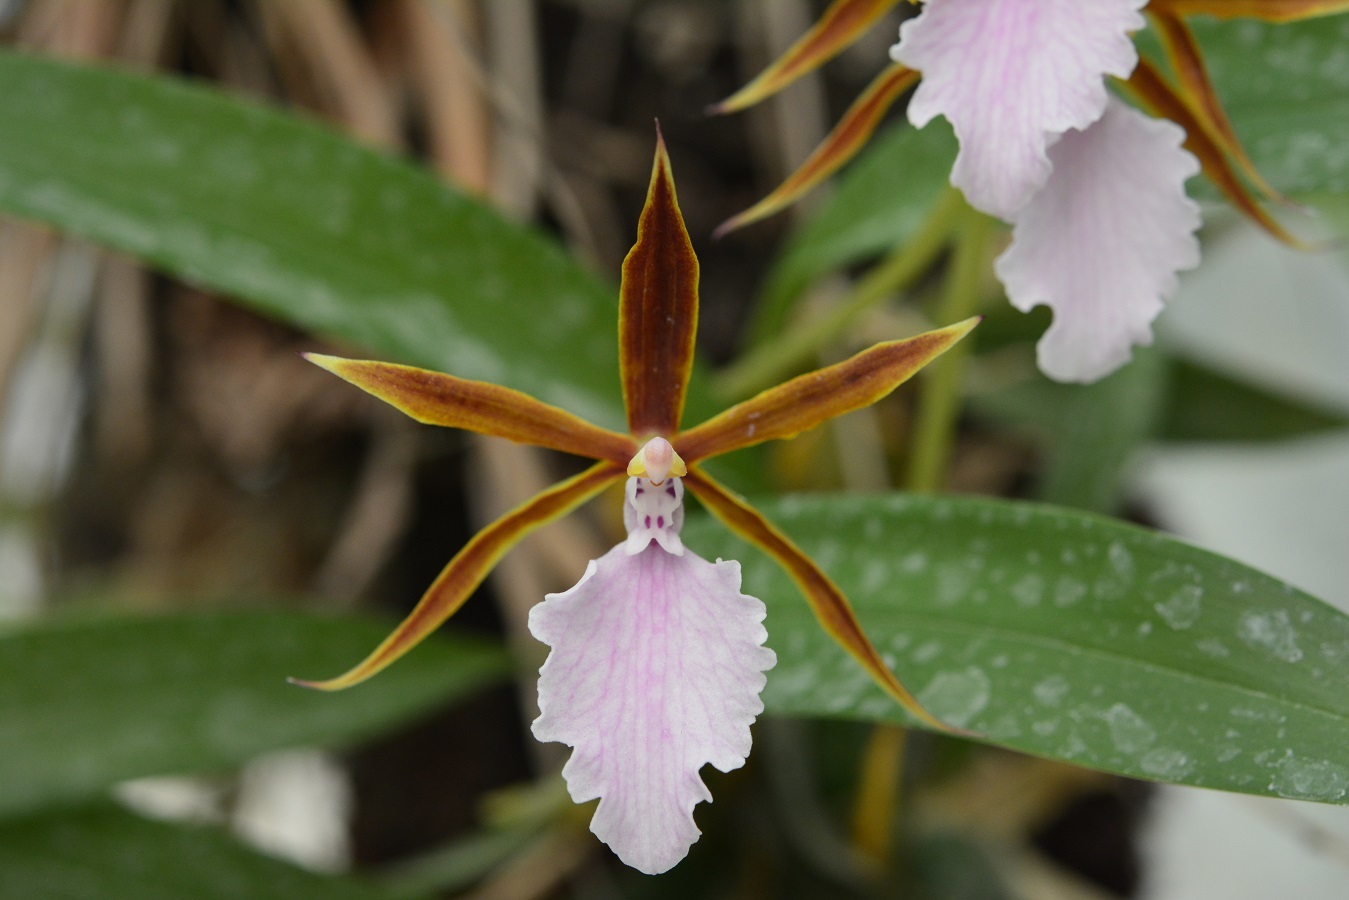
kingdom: Plantae
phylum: Tracheophyta
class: Liliopsida
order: Asparagales
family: Orchidaceae
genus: Rhynchostele
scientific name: Rhynchostele stellata
